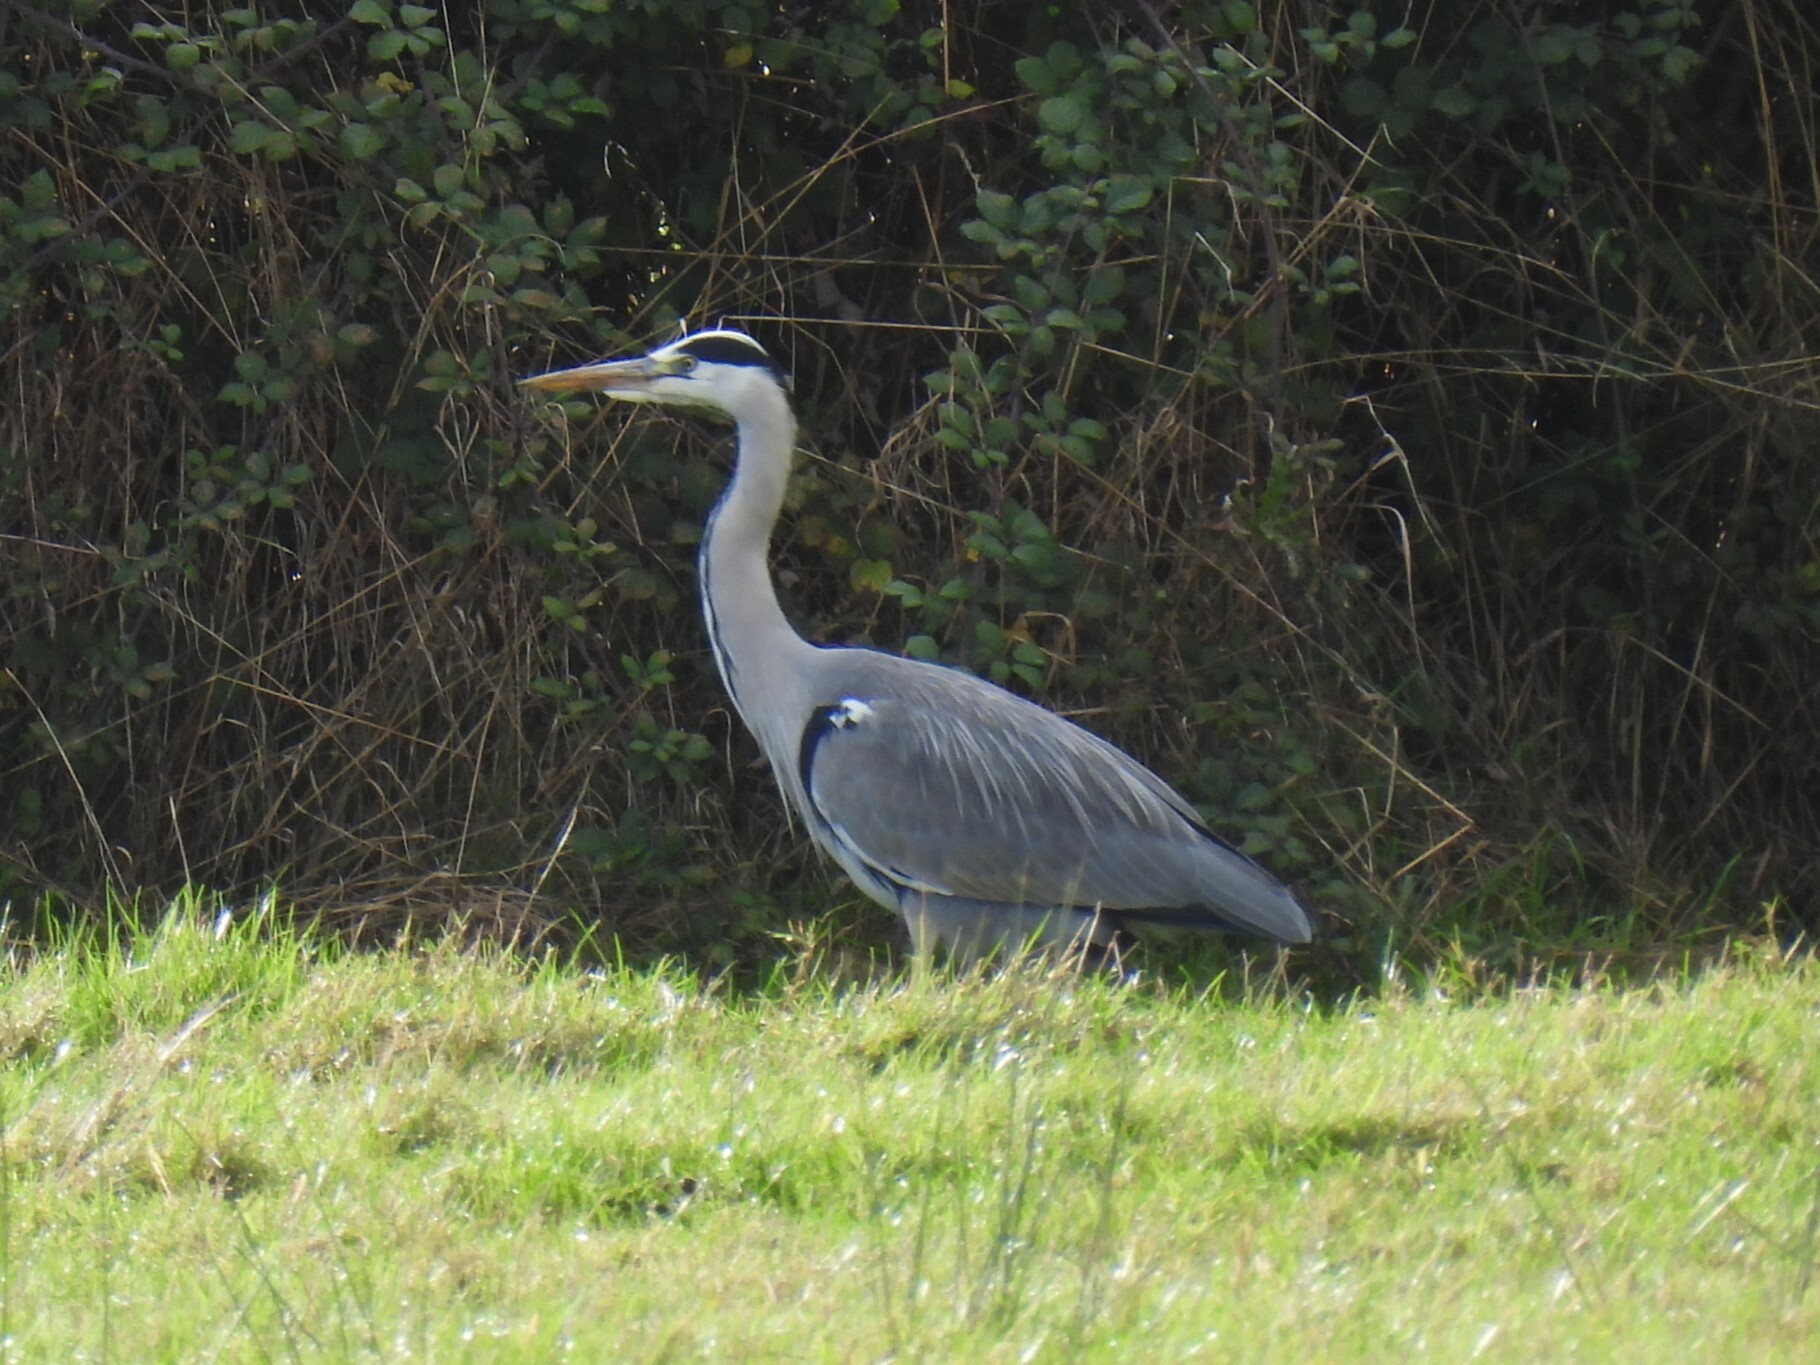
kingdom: Animalia
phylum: Chordata
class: Aves
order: Pelecaniformes
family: Ardeidae
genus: Ardea
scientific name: Ardea cinerea
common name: Grey heron
